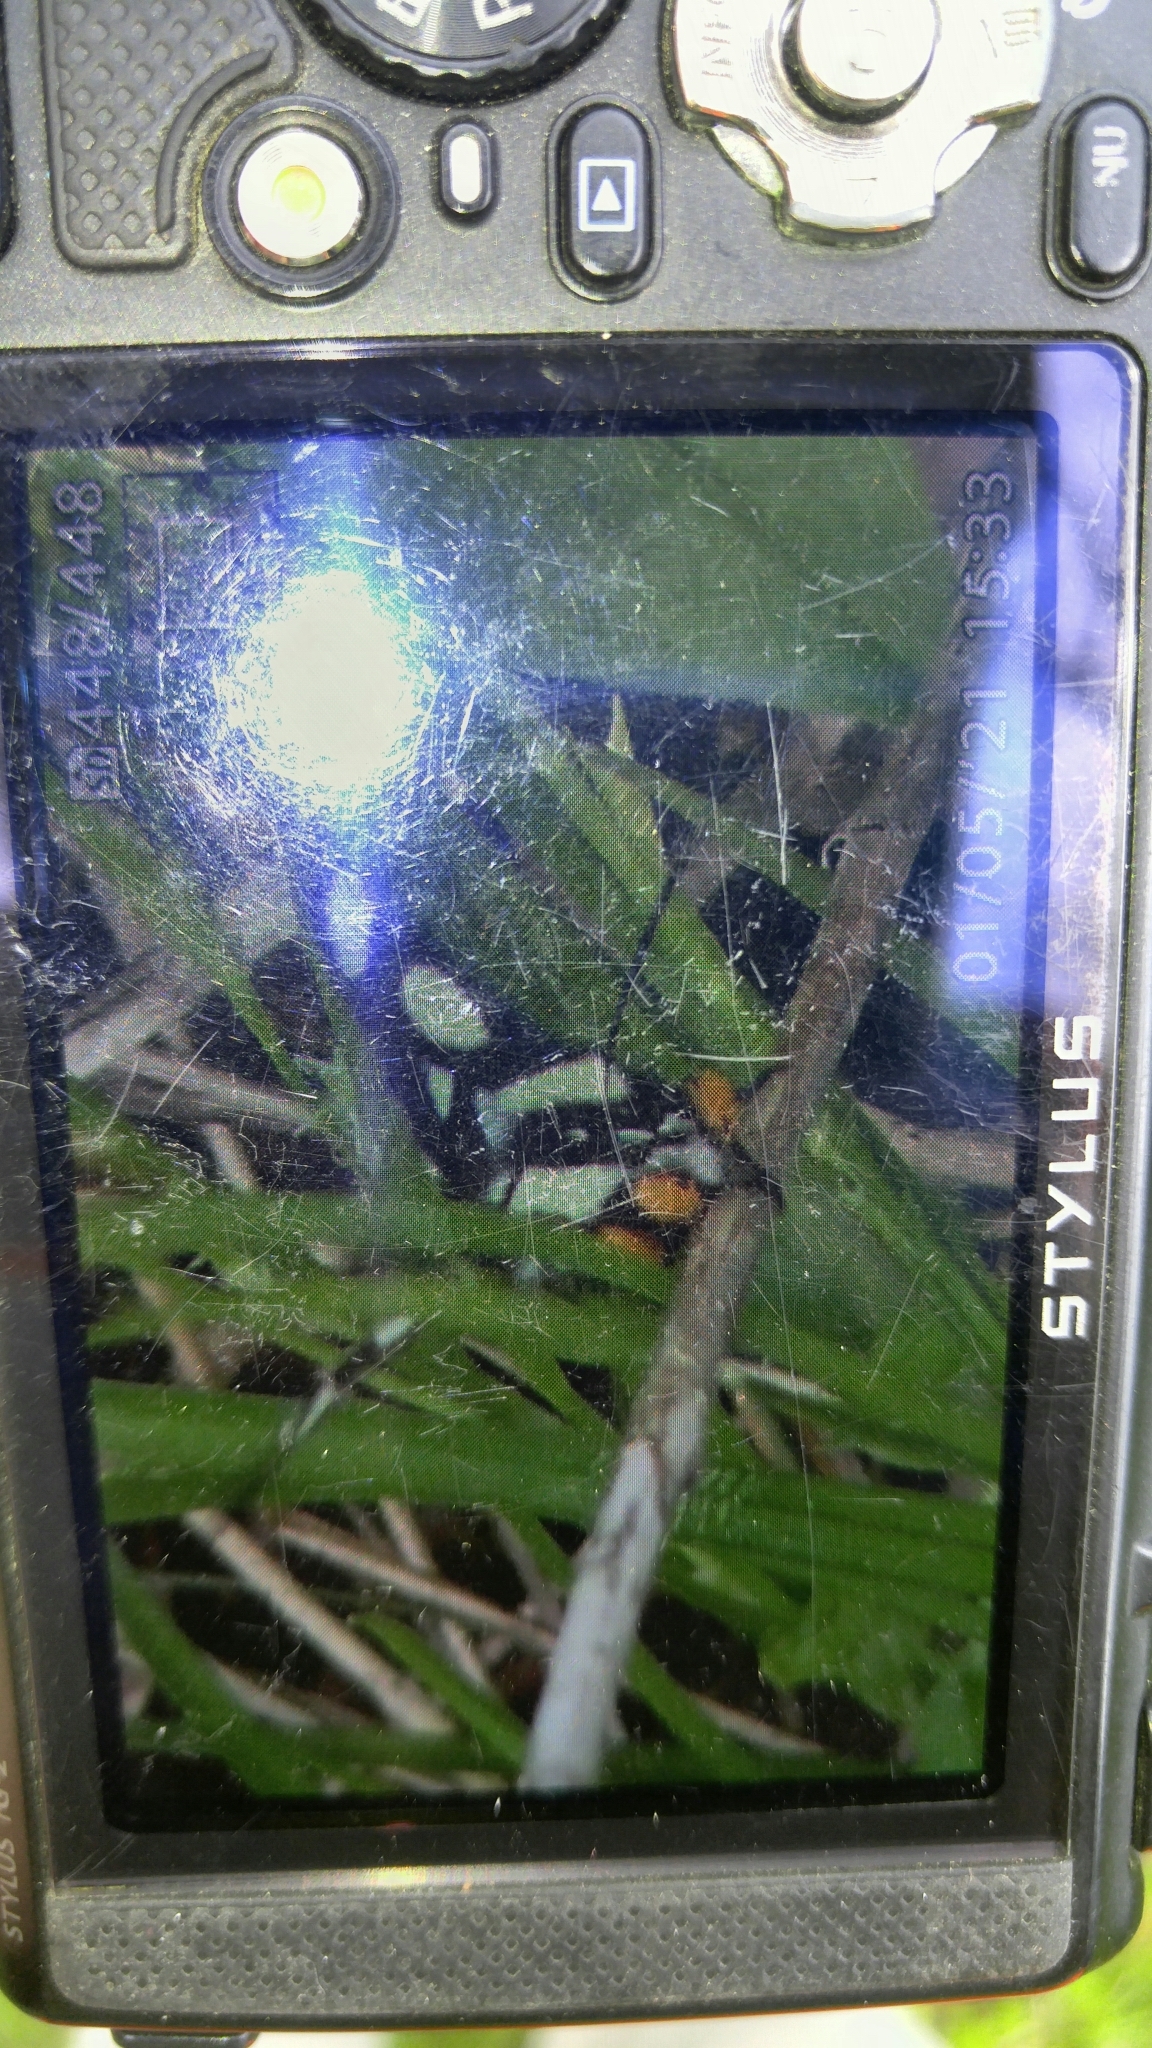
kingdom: Animalia
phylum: Arthropoda
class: Insecta
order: Lepidoptera
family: Noctuidae
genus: Alypia
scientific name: Alypia octomaculata
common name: Eight-spotted forester
